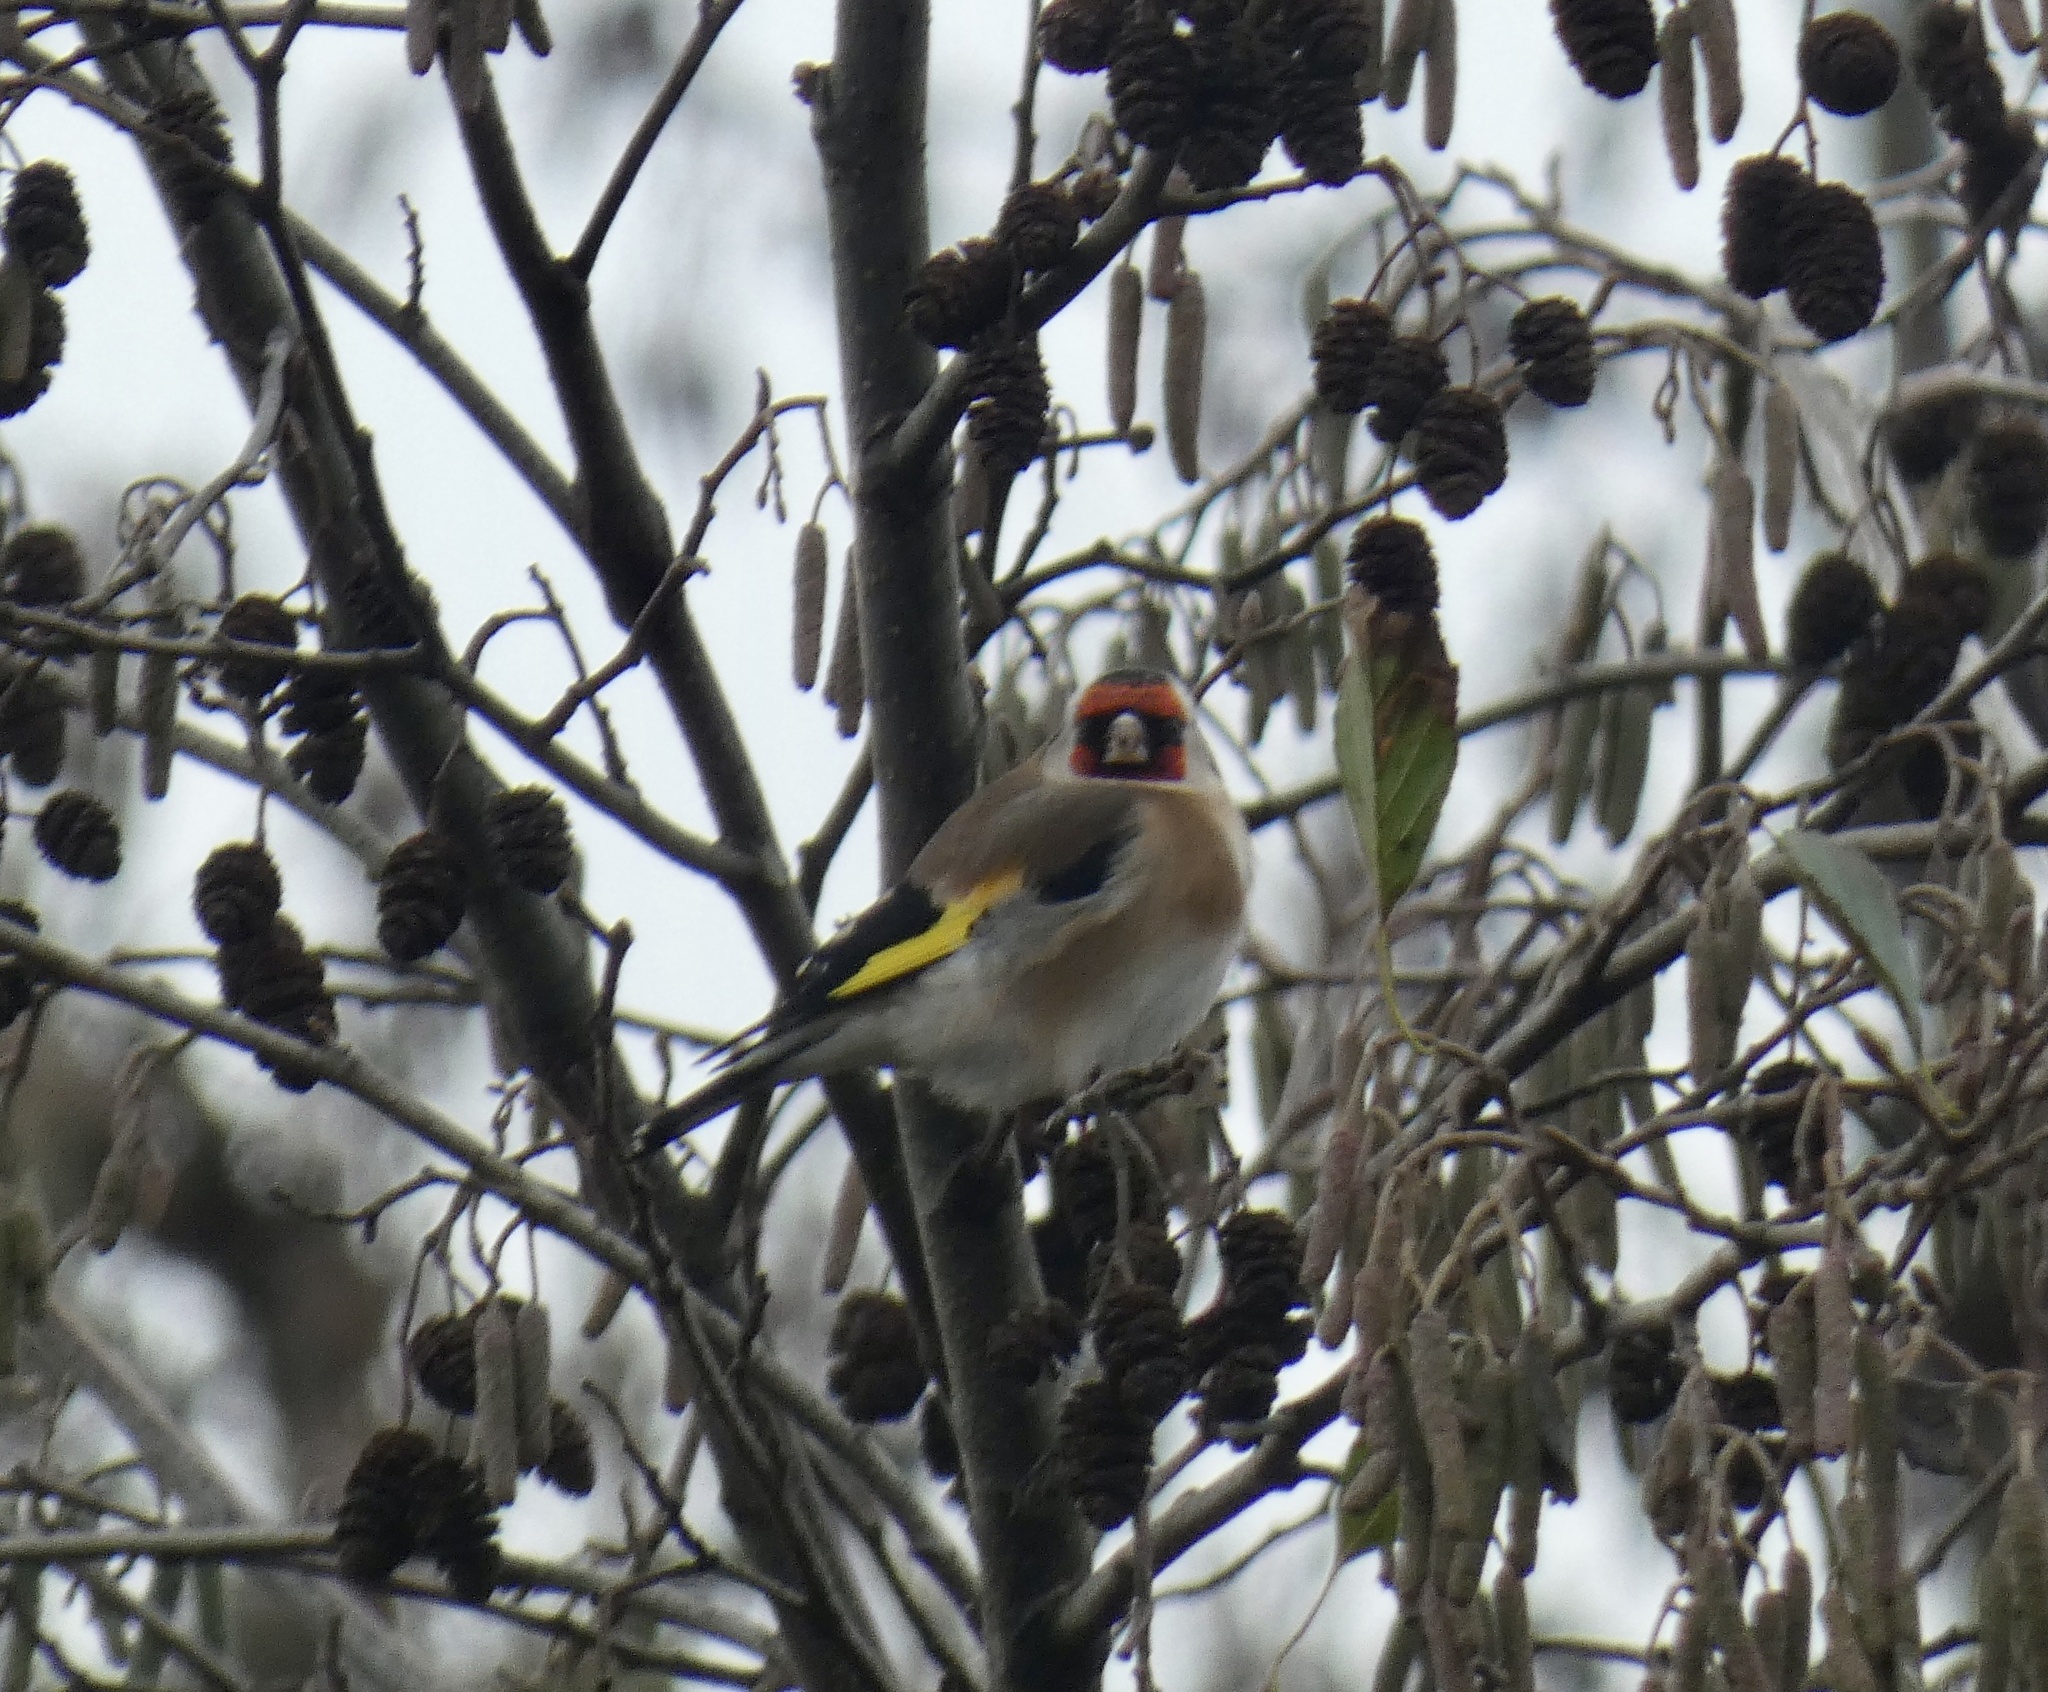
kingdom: Animalia
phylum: Chordata
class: Aves
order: Passeriformes
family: Fringillidae
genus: Carduelis
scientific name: Carduelis carduelis
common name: European goldfinch
